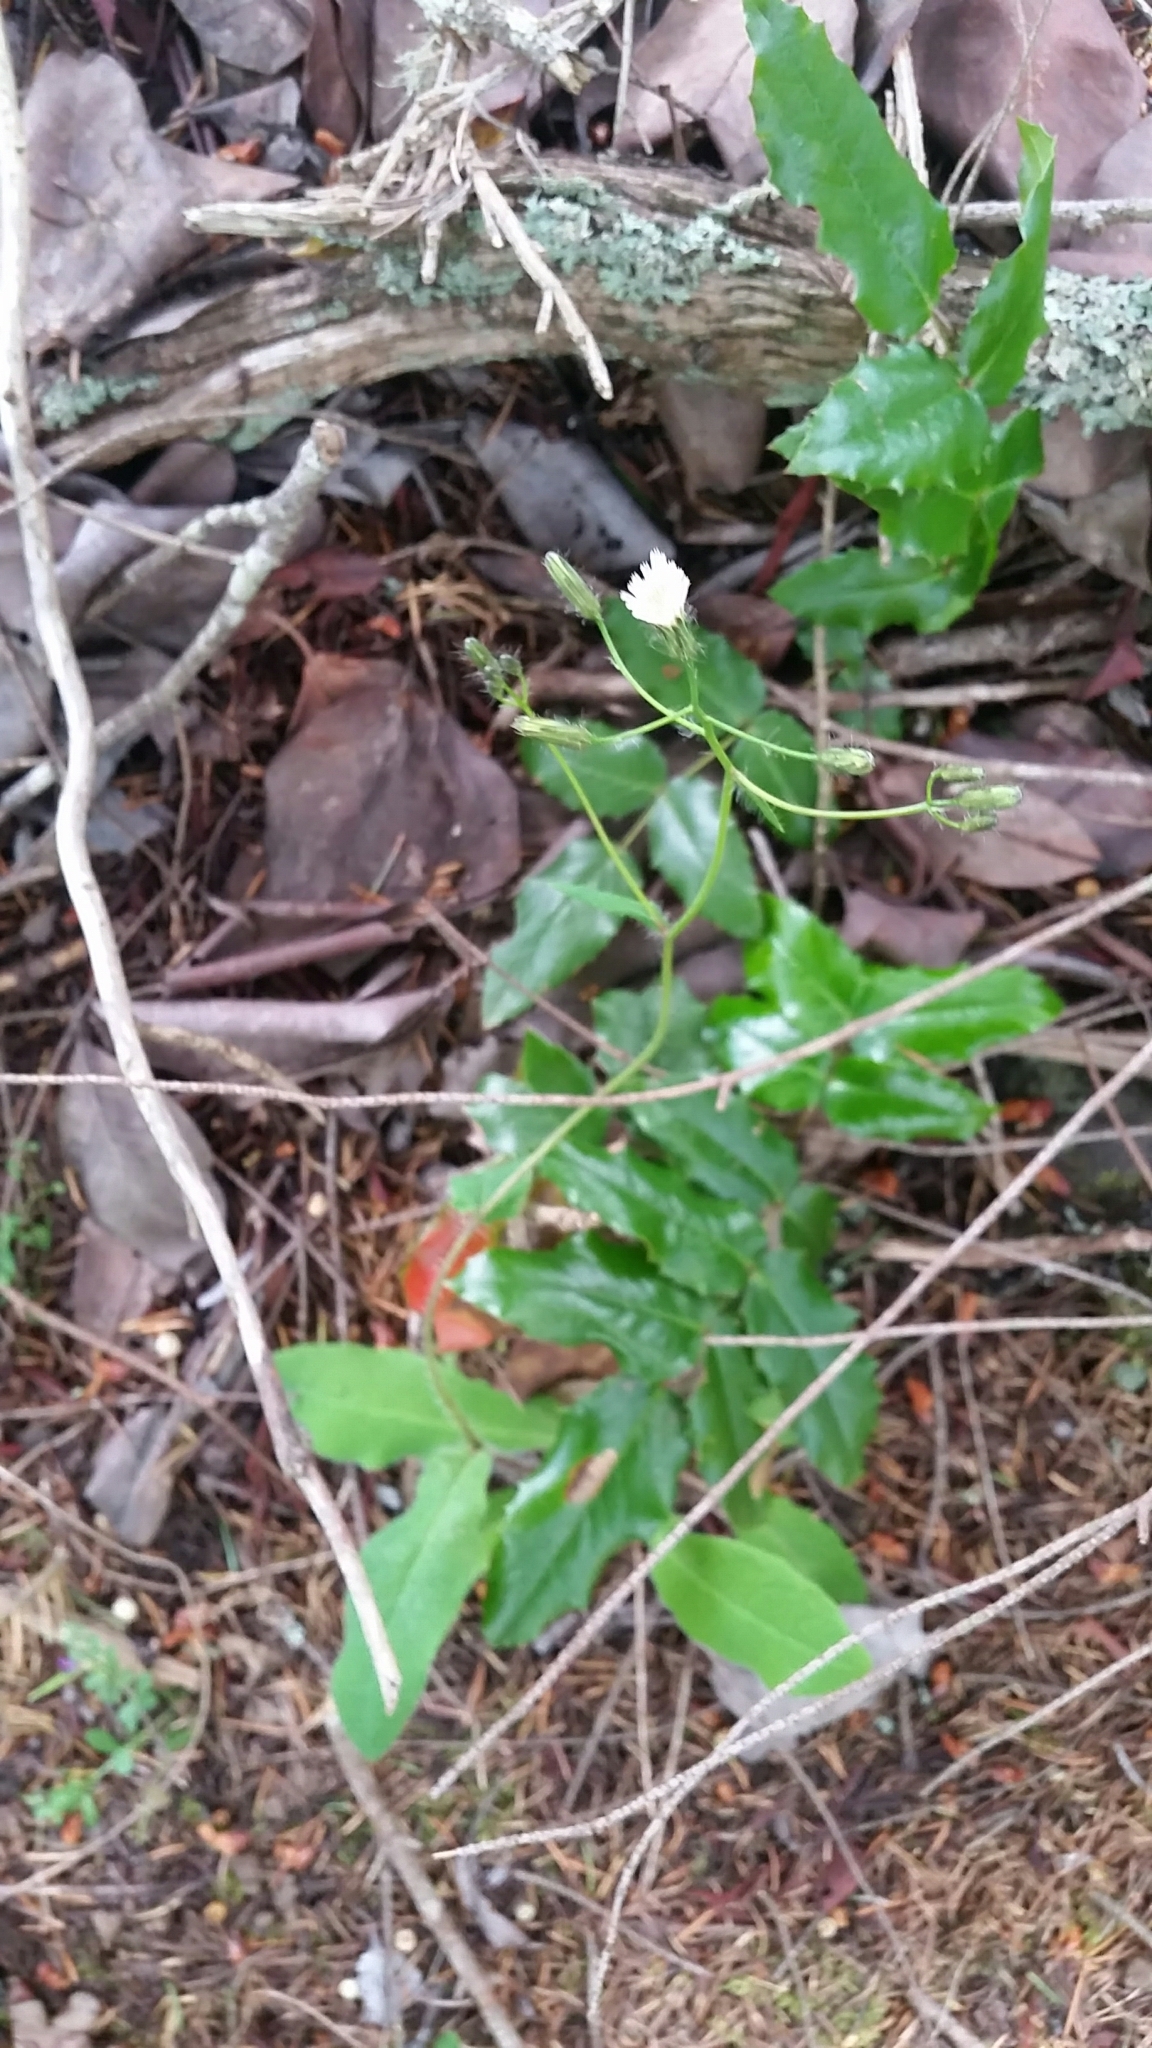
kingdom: Plantae
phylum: Tracheophyta
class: Magnoliopsida
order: Asterales
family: Asteraceae
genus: Hieracium
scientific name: Hieracium albiflorum
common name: White hawkweed
